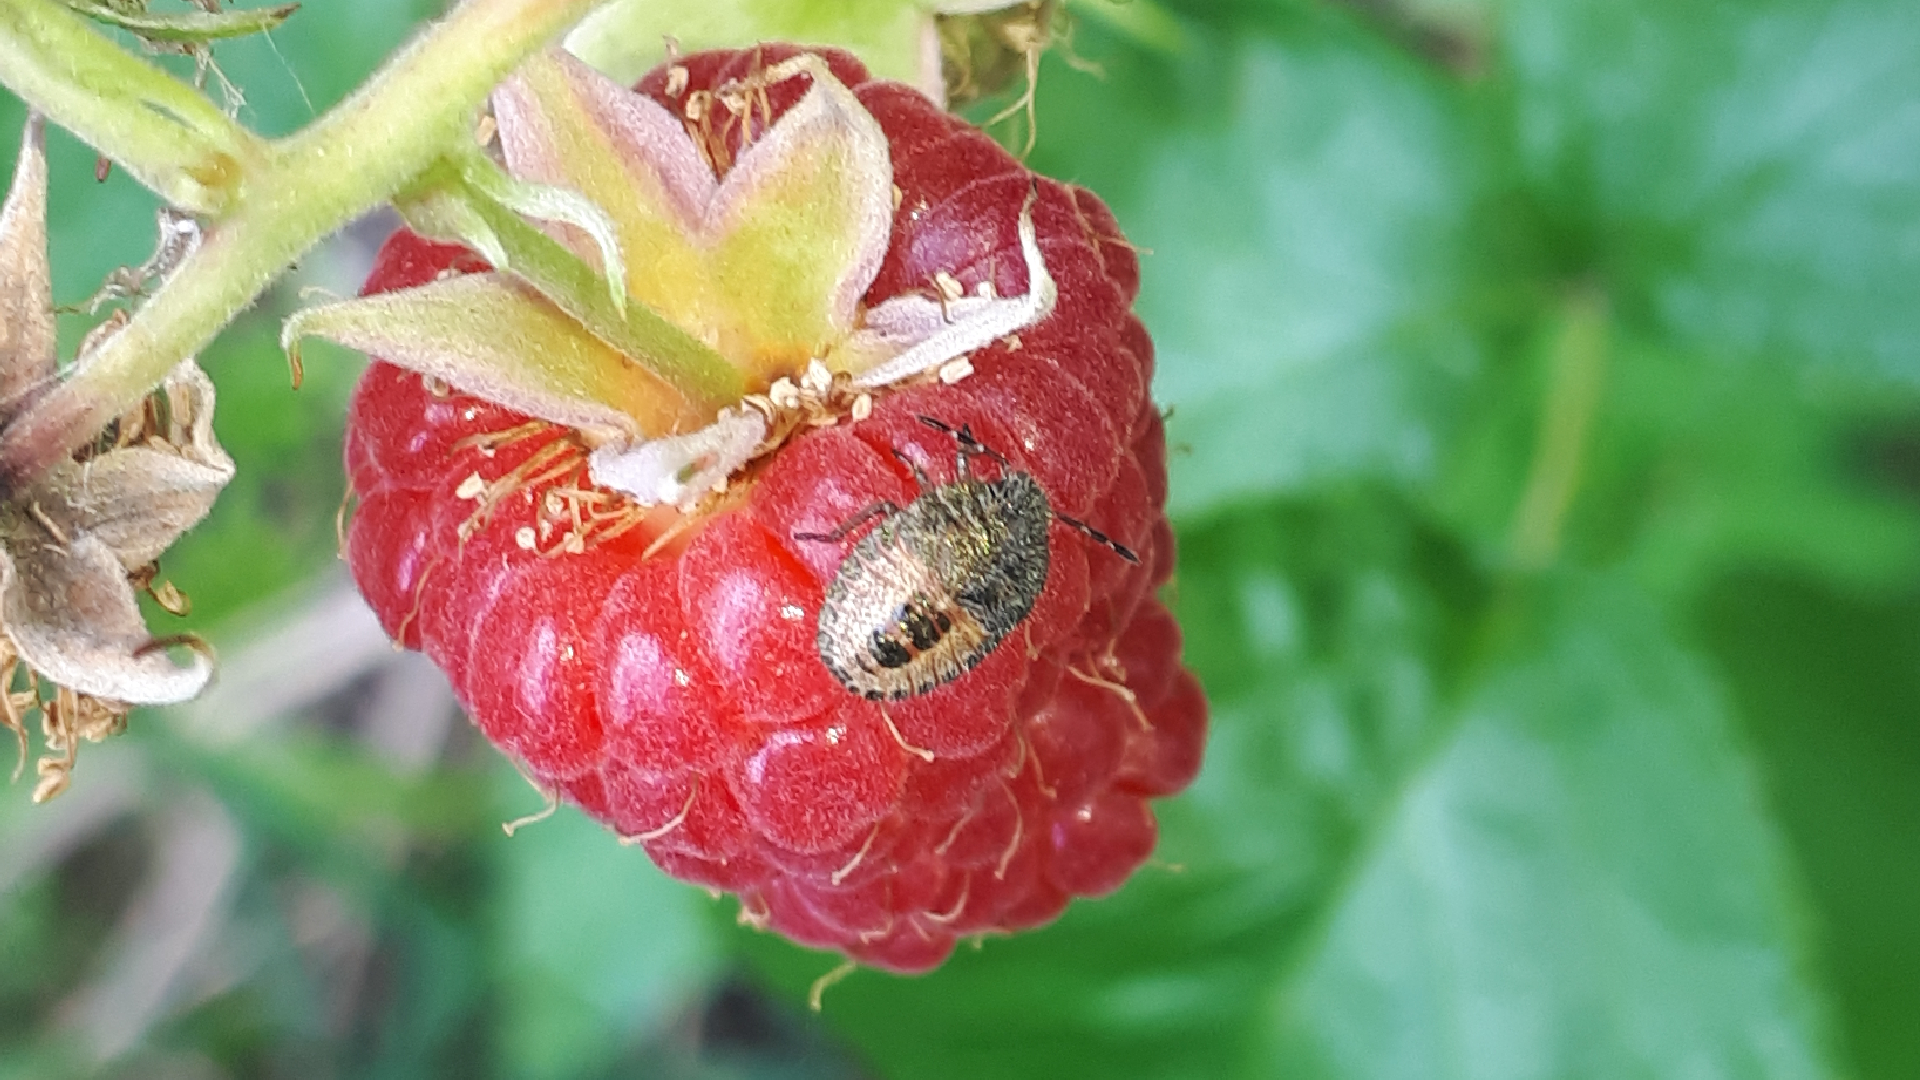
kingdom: Animalia
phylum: Arthropoda
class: Insecta
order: Hemiptera
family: Pentatomidae
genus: Dolycoris
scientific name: Dolycoris baccarum
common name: Sloe bug
